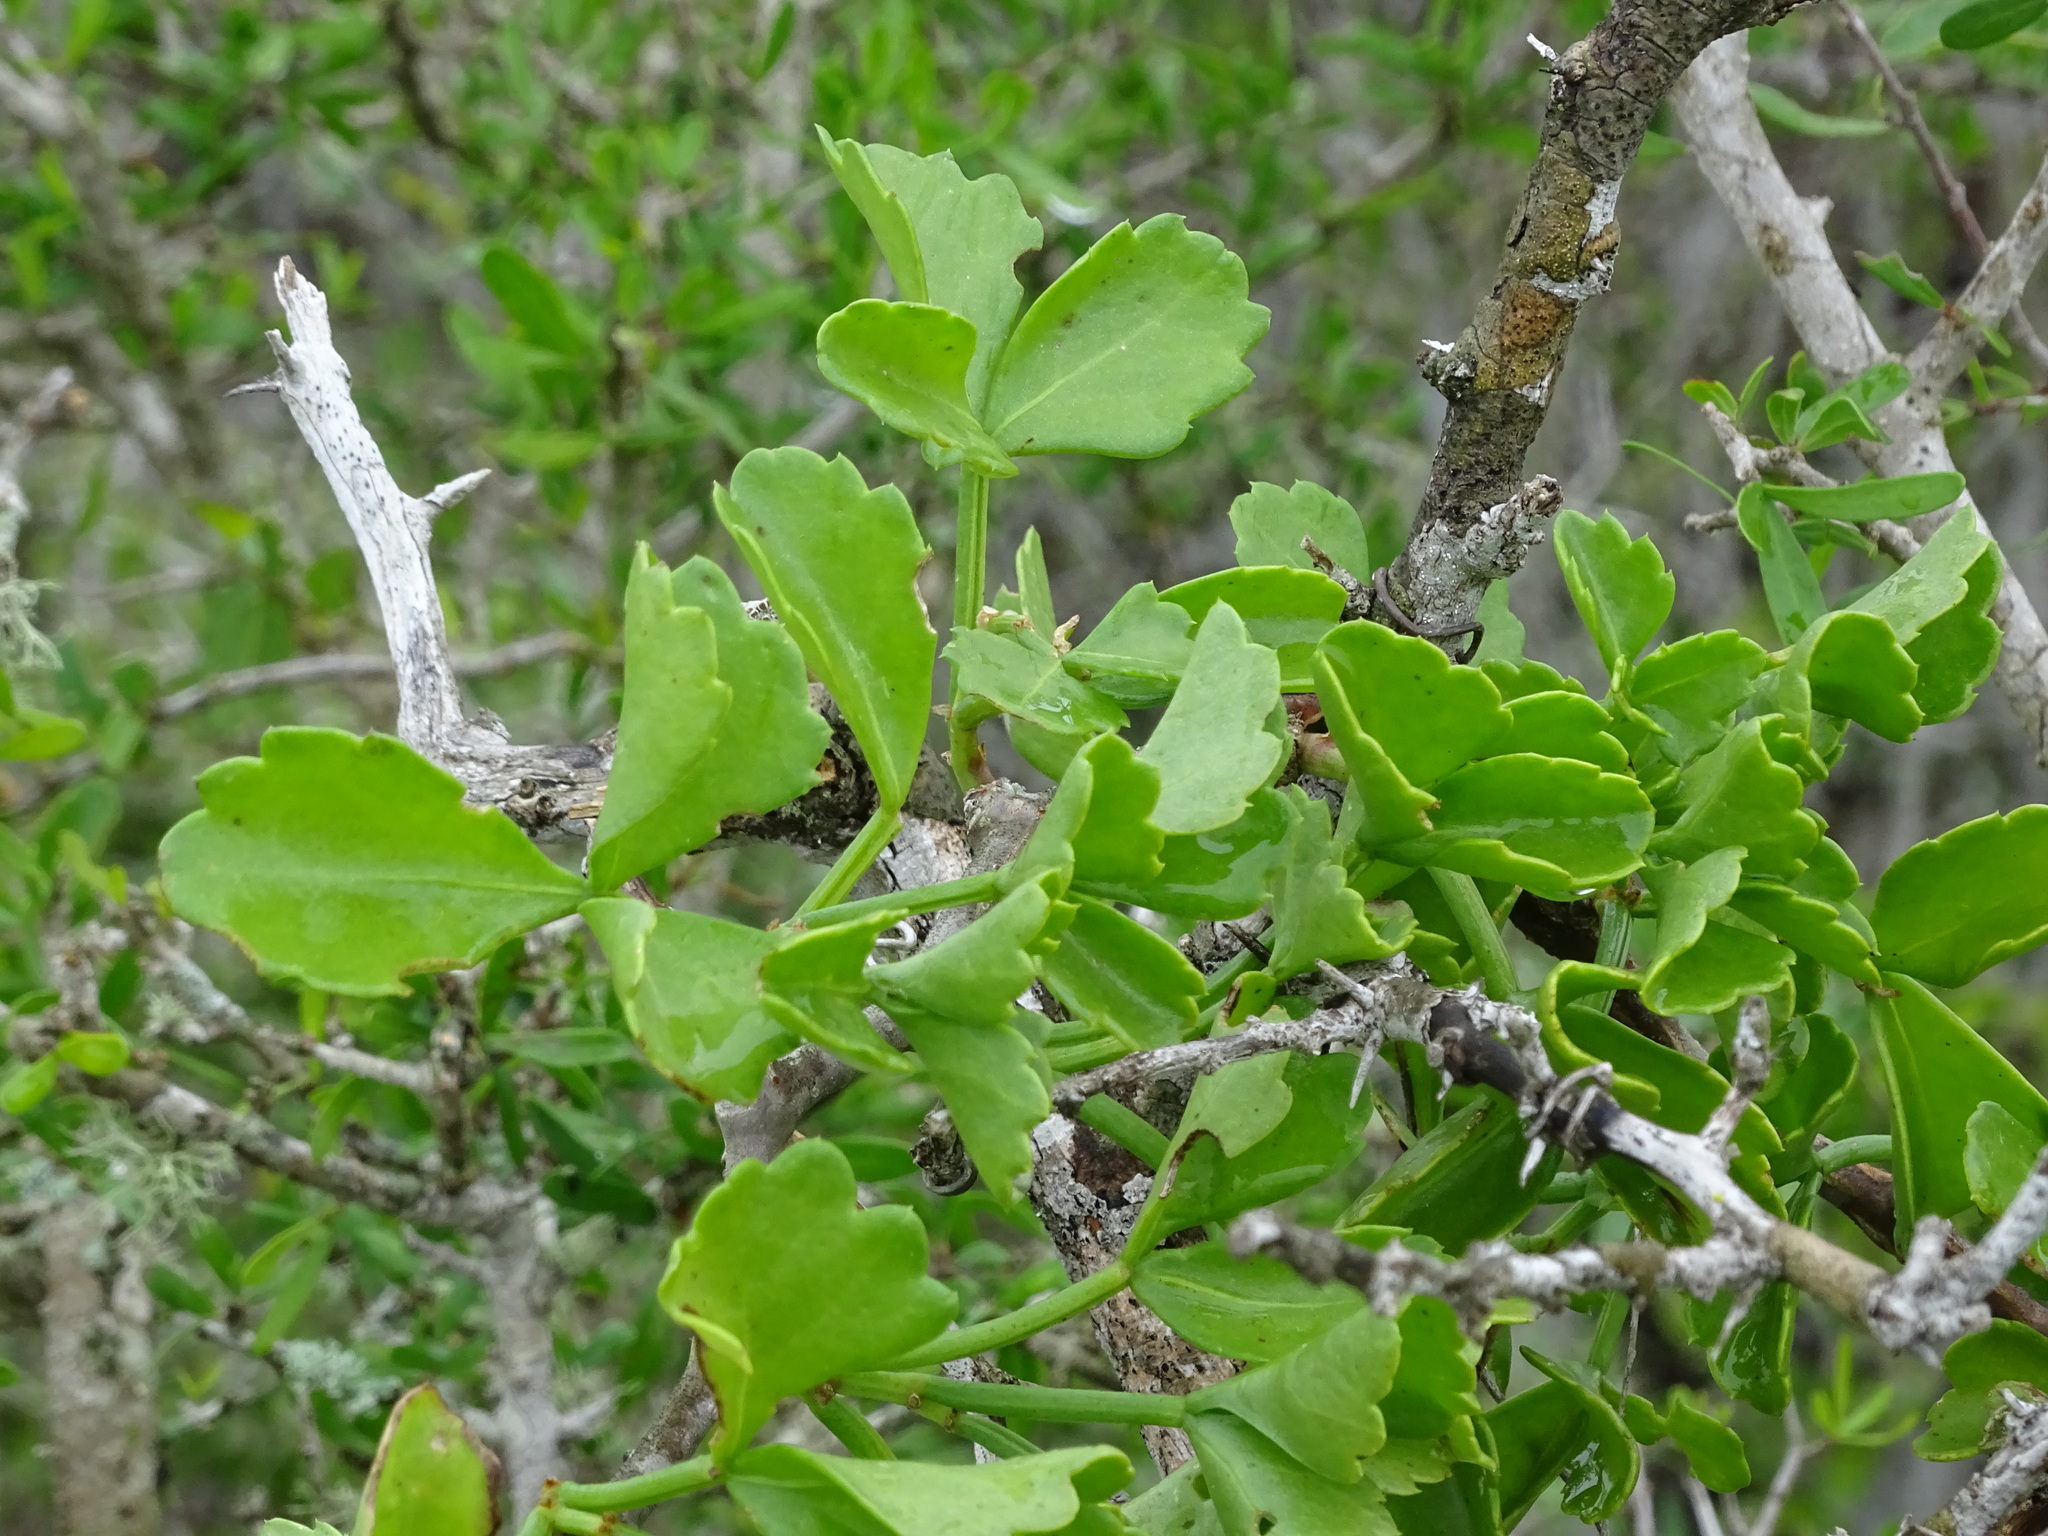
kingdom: Plantae
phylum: Tracheophyta
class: Magnoliopsida
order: Vitales
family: Vitaceae
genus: Cissus
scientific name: Cissus trifoliata
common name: Vine-sorrel
